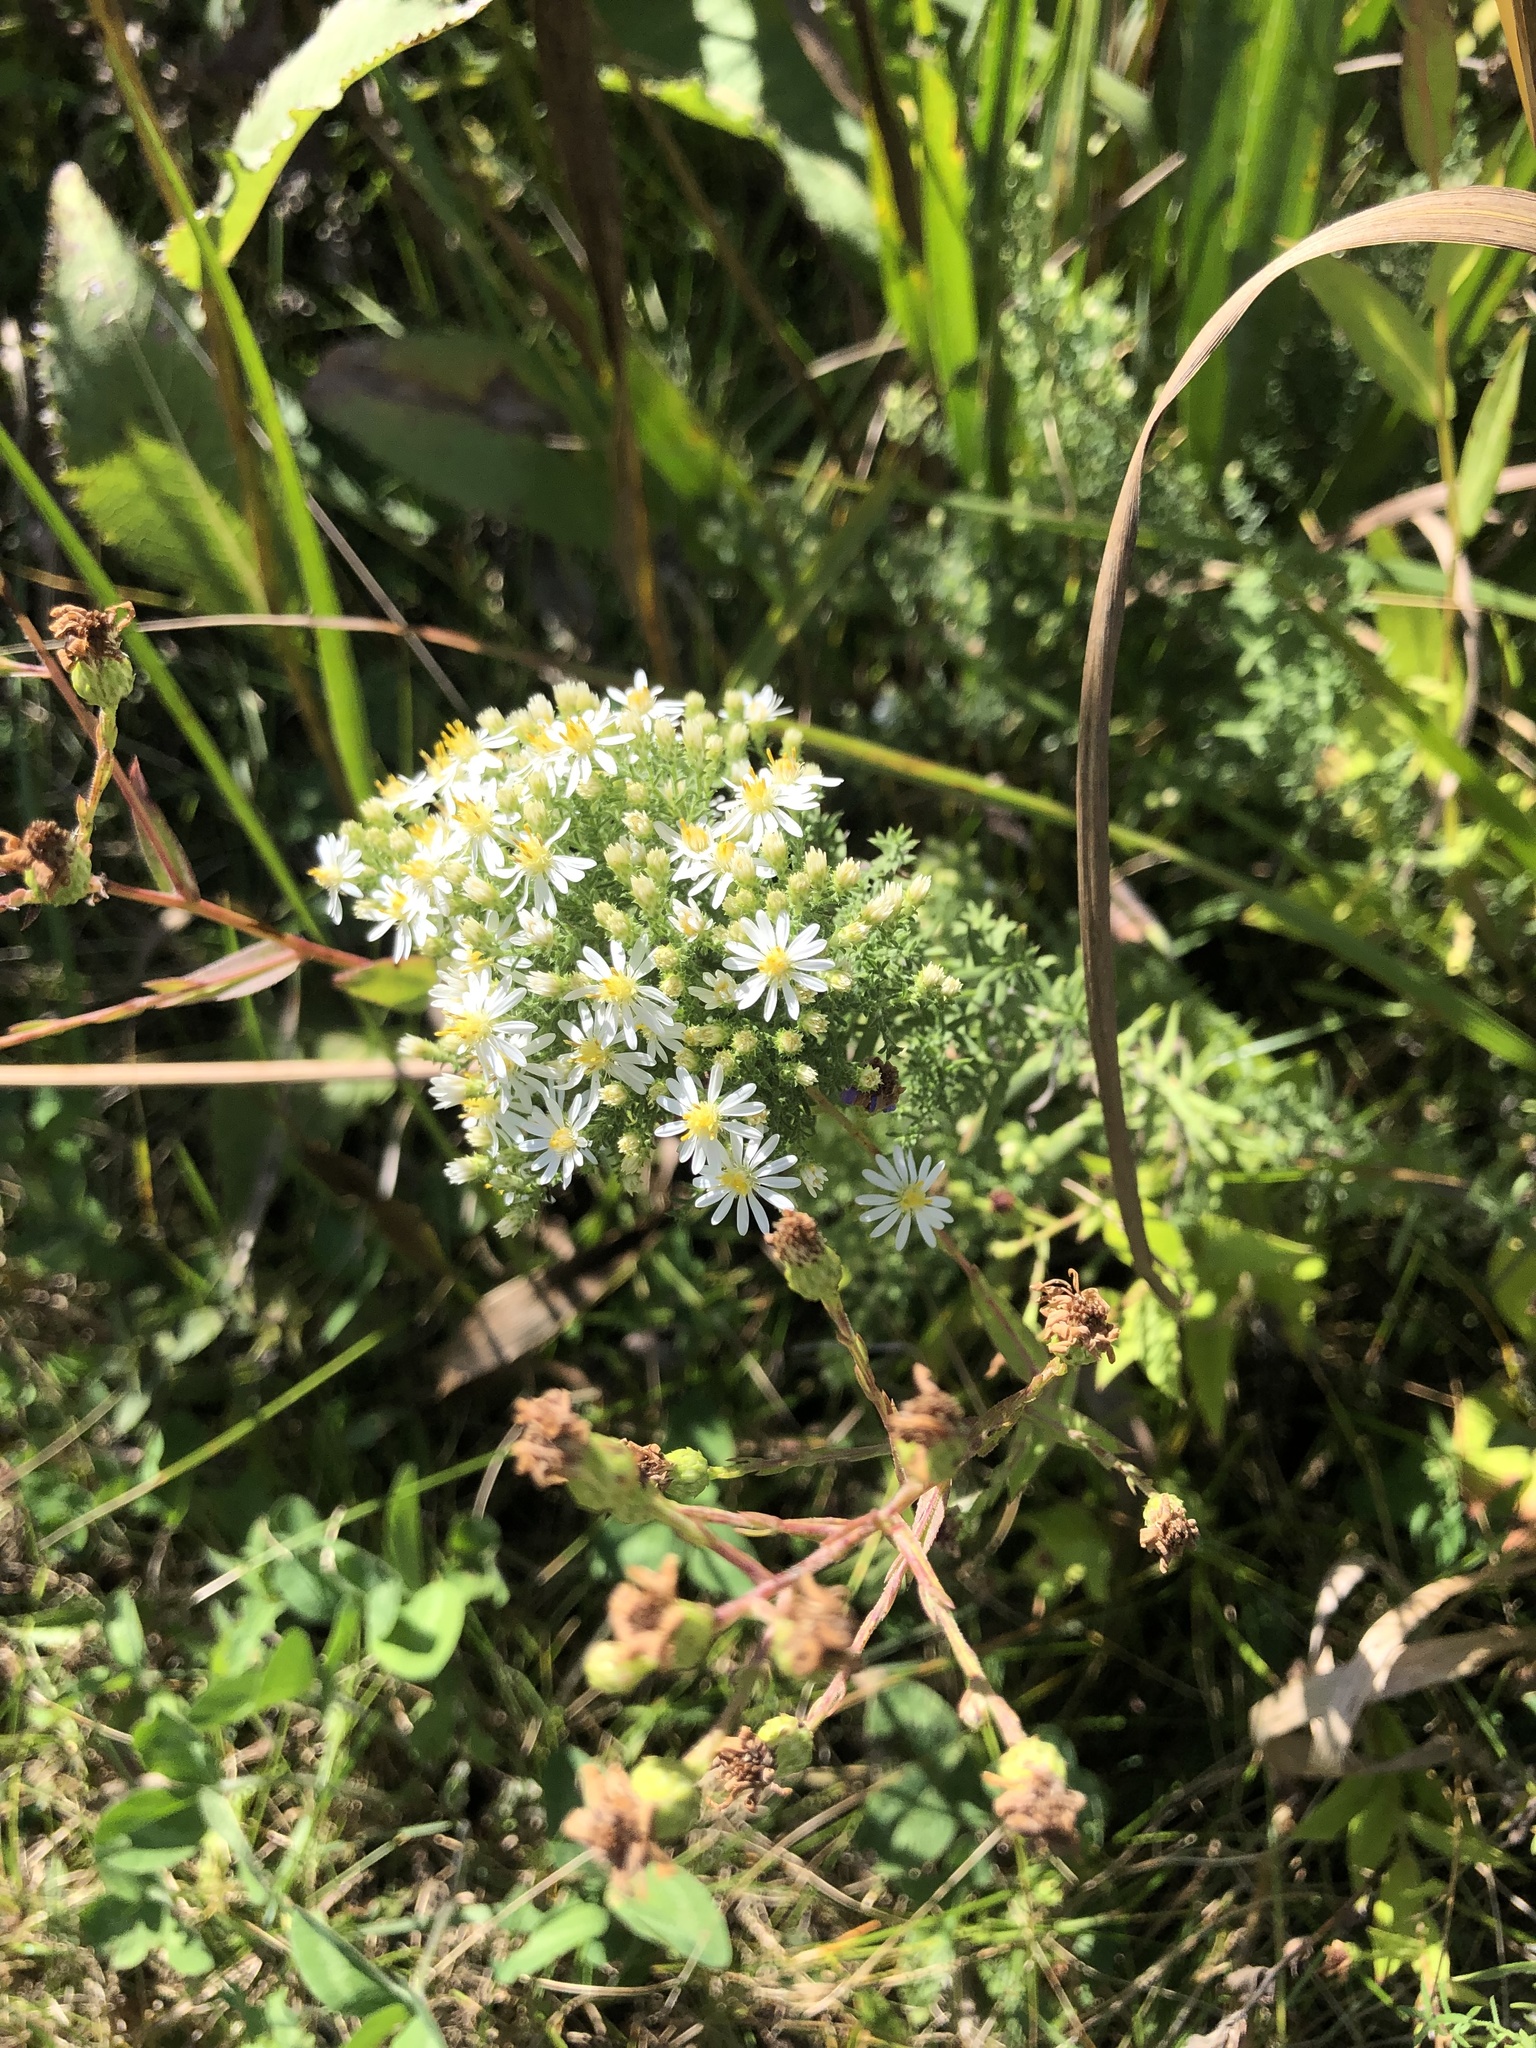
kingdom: Plantae
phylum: Tracheophyta
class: Magnoliopsida
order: Asterales
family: Asteraceae
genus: Symphyotrichum
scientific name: Symphyotrichum ericoides
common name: Heath aster
